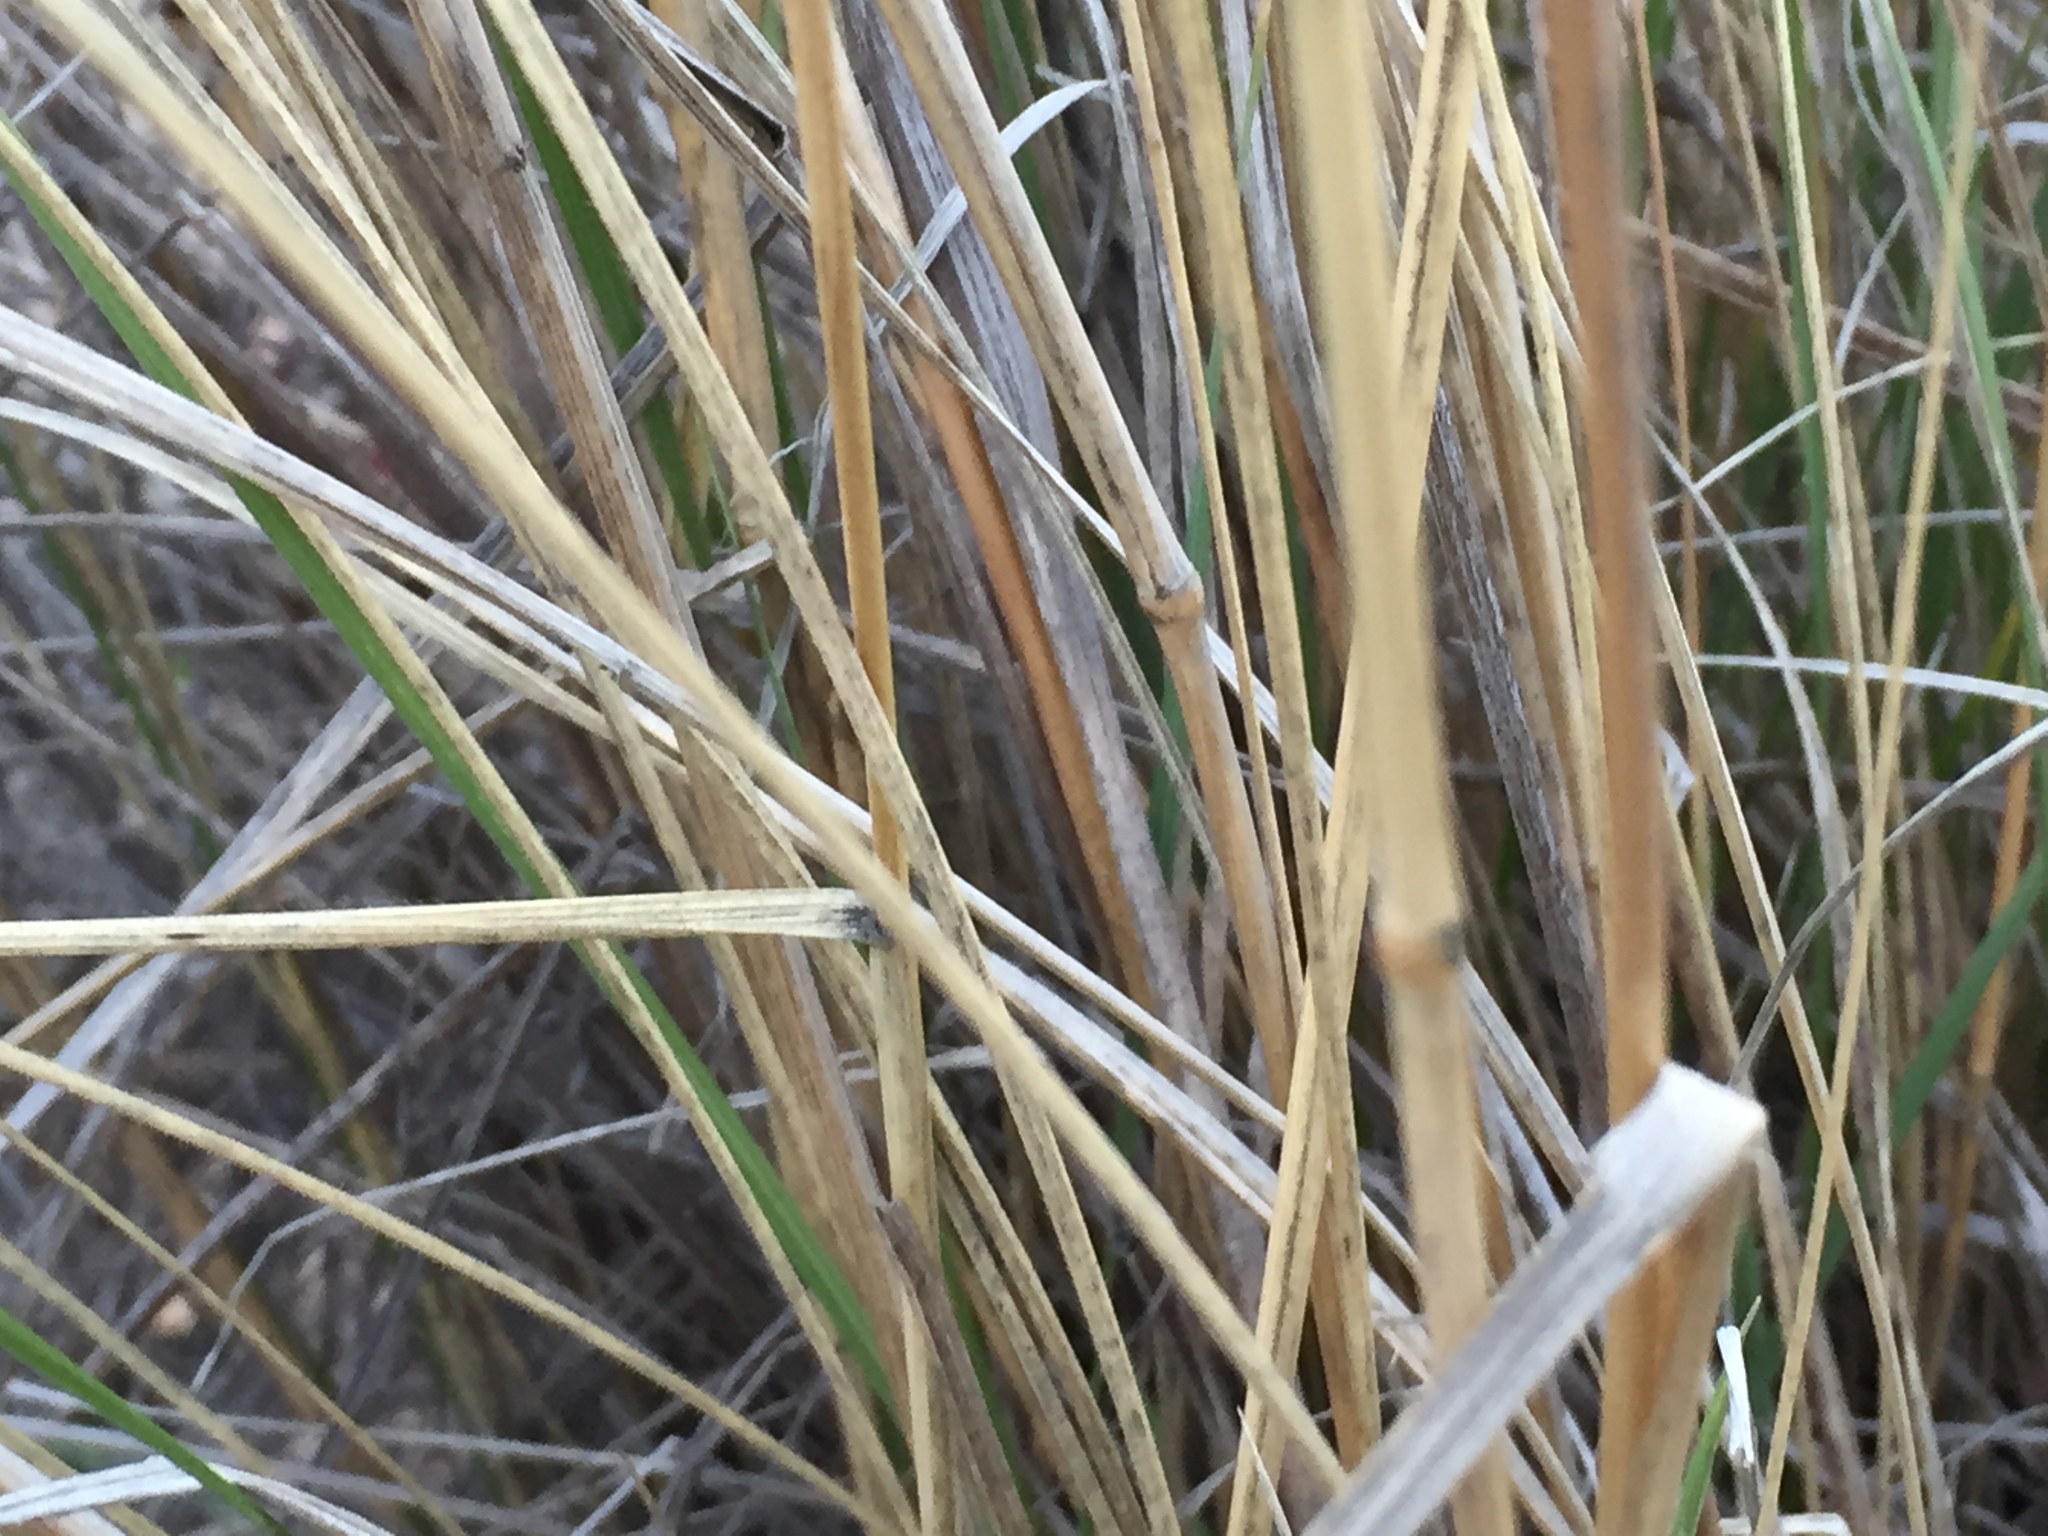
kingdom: Plantae
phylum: Tracheophyta
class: Liliopsida
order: Poales
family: Poaceae
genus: Pseudoroegneria
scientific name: Pseudoroegneria spicata
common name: Bluebunch wheatgrass
